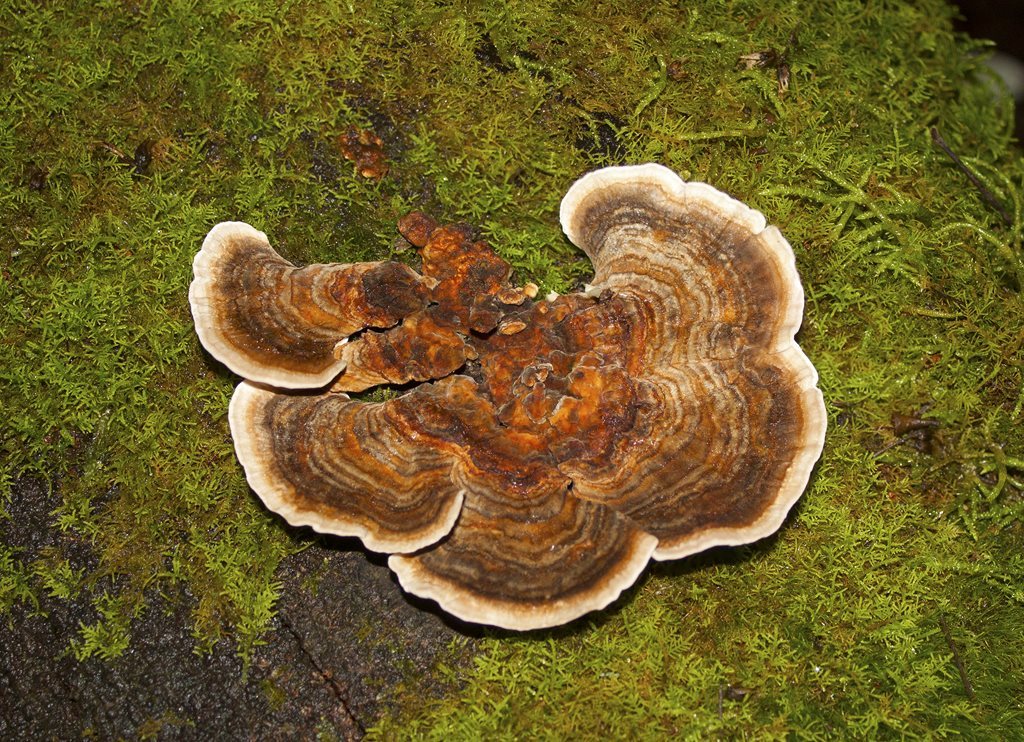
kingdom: Fungi
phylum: Basidiomycota
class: Agaricomycetes
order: Polyporales
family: Polyporaceae
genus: Trametes
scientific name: Trametes versicolor
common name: Turkeytail
